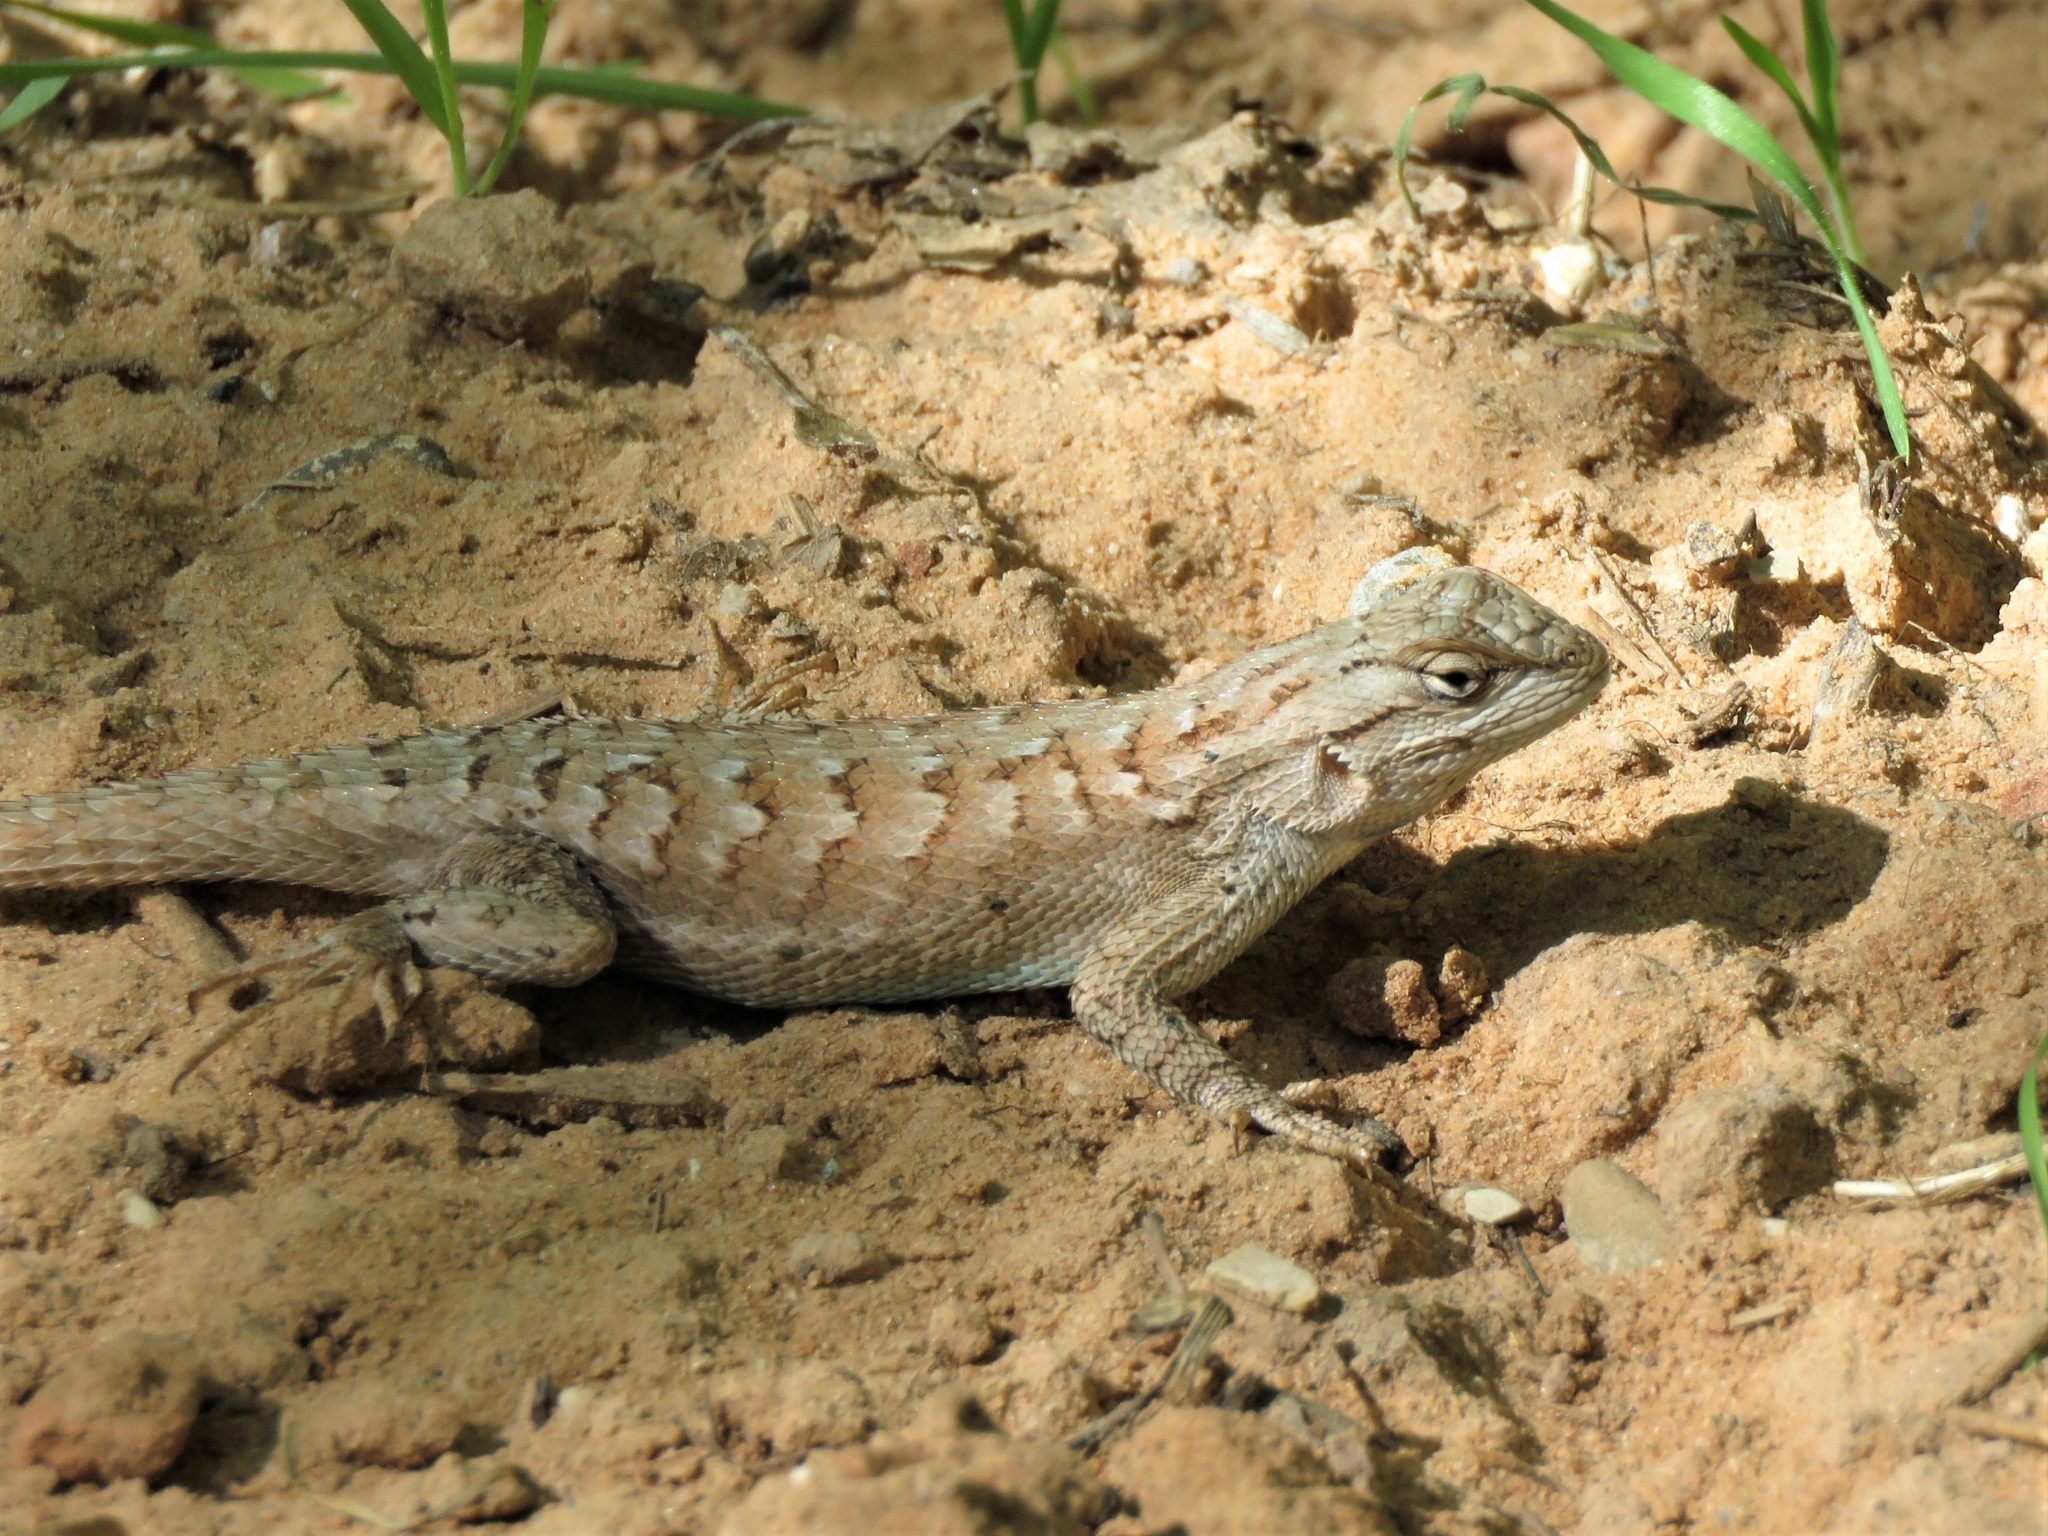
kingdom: Animalia
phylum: Chordata
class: Squamata
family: Phrynosomatidae
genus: Sceloporus
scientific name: Sceloporus tristichus
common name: Plateau fence lizard
